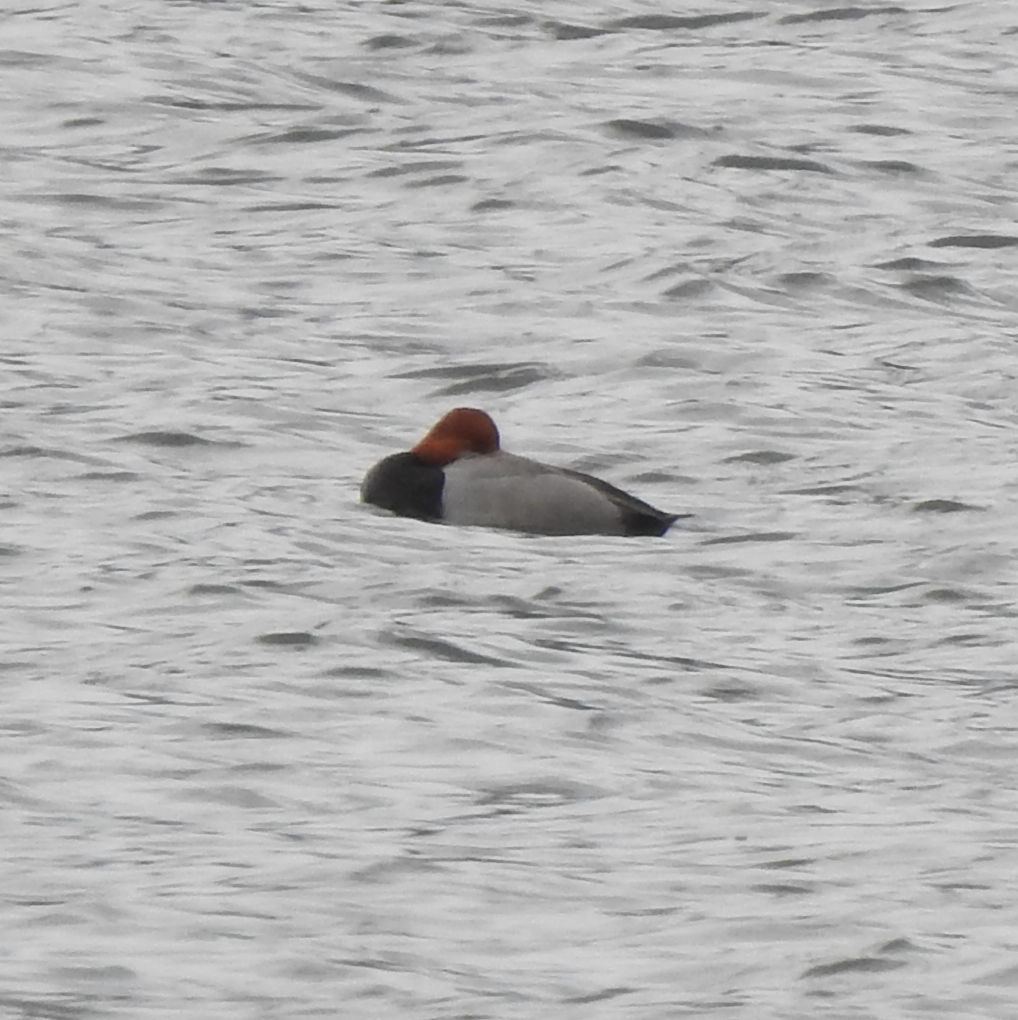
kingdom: Animalia
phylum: Chordata
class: Aves
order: Anseriformes
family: Anatidae
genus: Aythya
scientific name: Aythya americana
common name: Redhead
